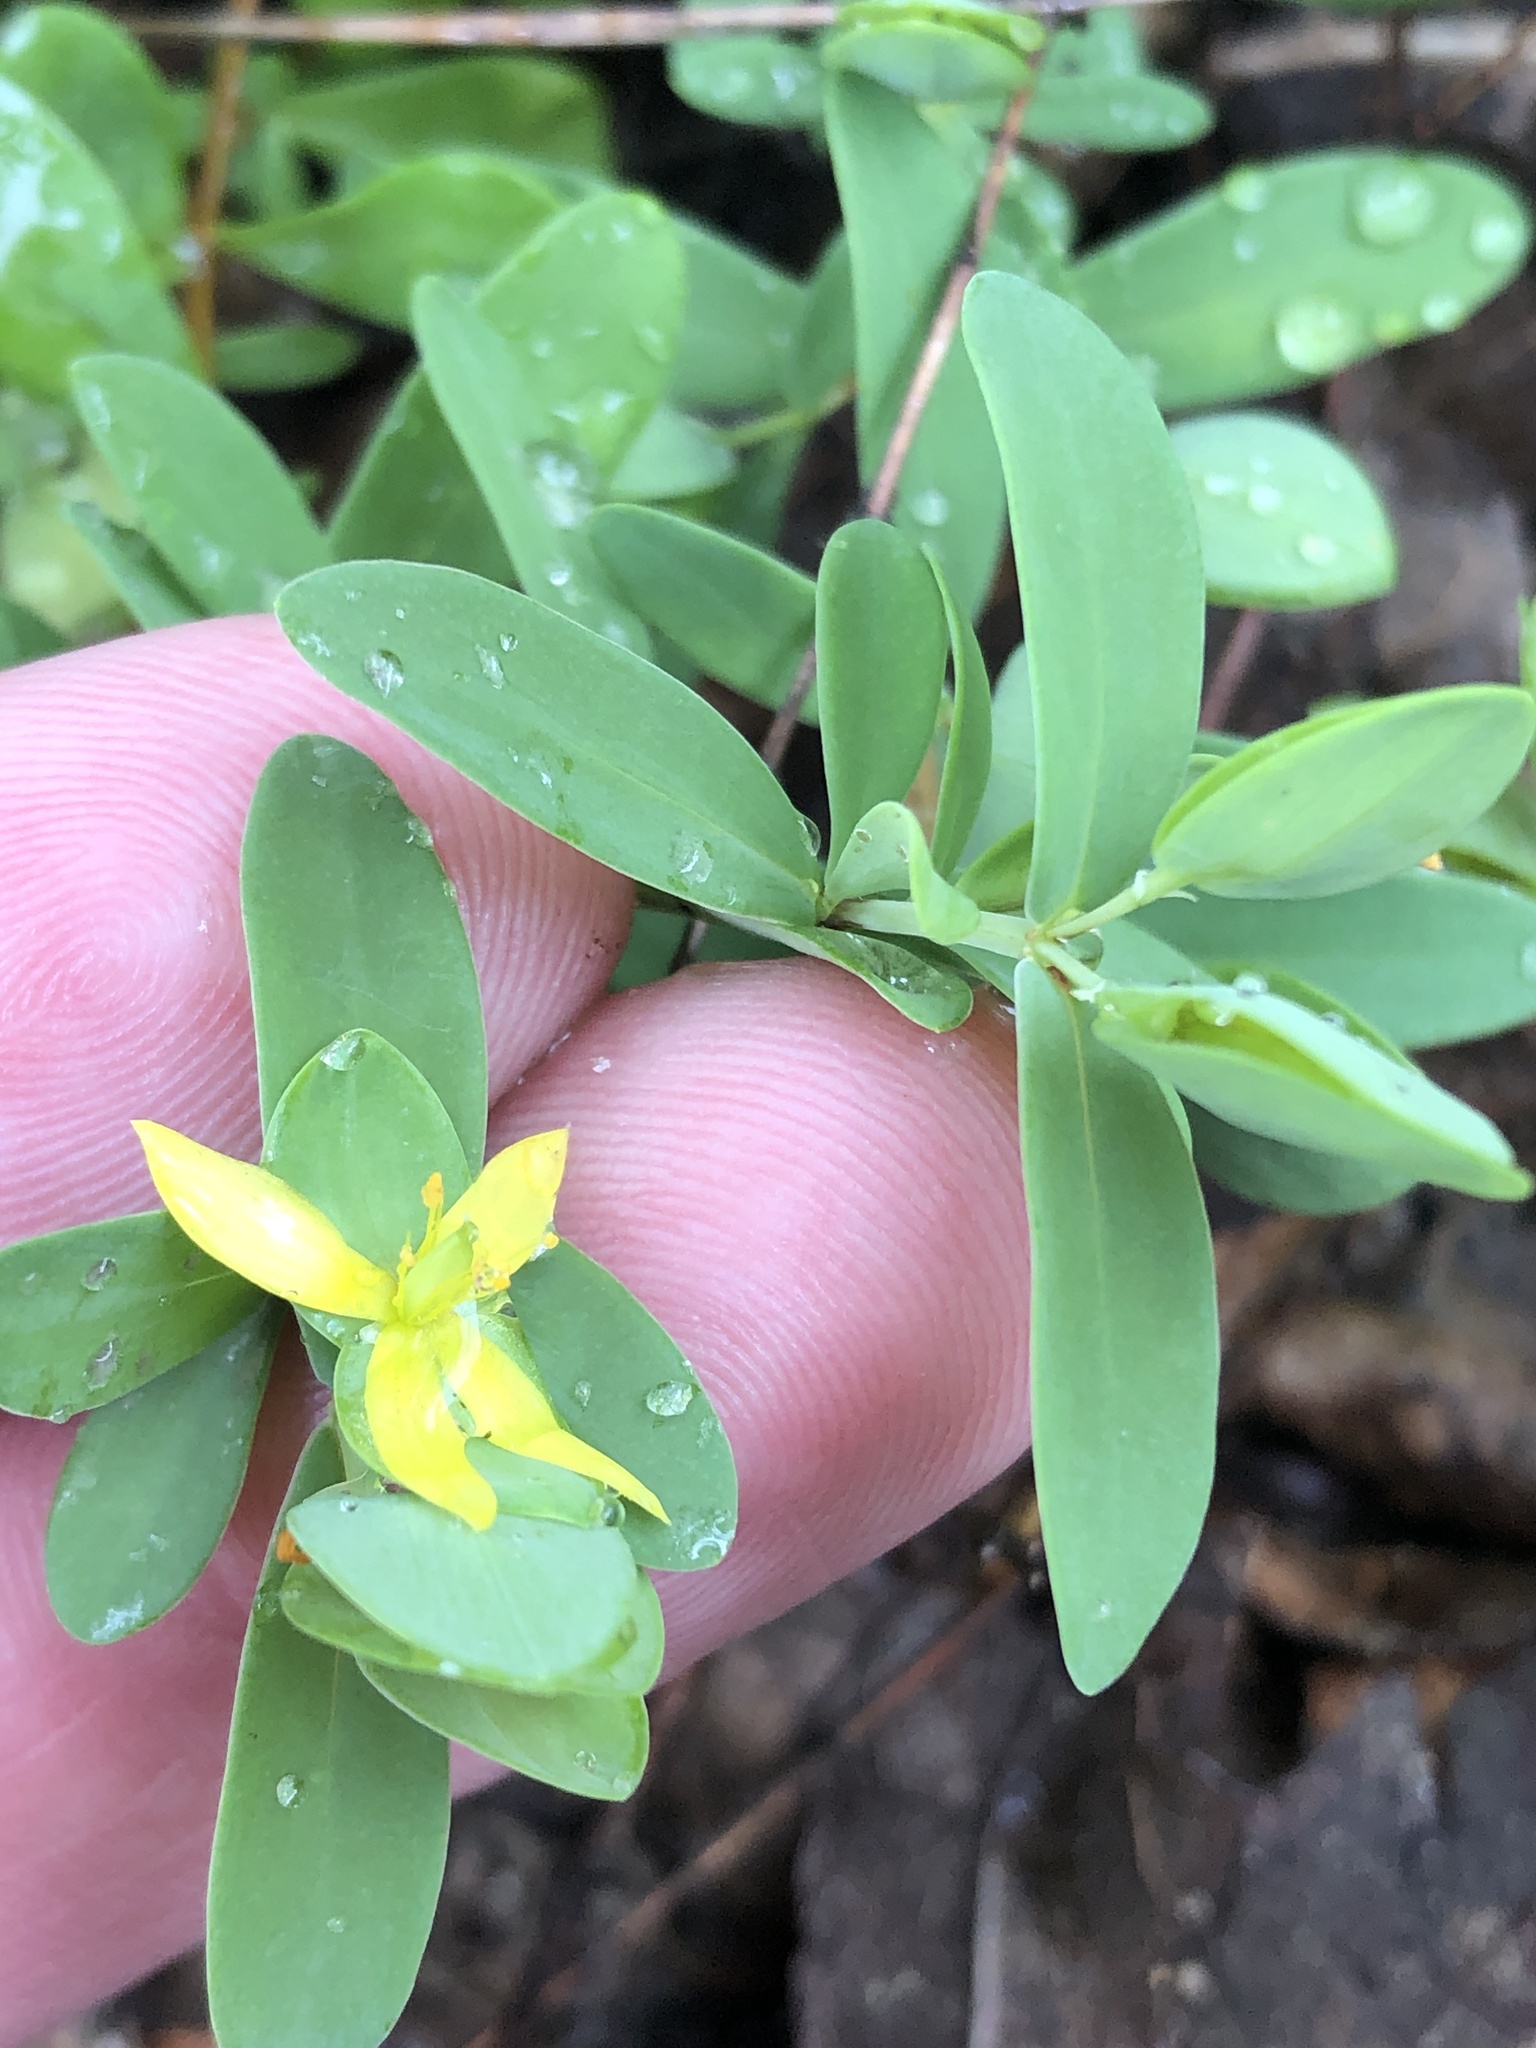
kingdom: Plantae
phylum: Tracheophyta
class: Magnoliopsida
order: Malpighiales
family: Hypericaceae
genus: Hypericum
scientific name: Hypericum hypericoides
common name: St. andrew's cross
